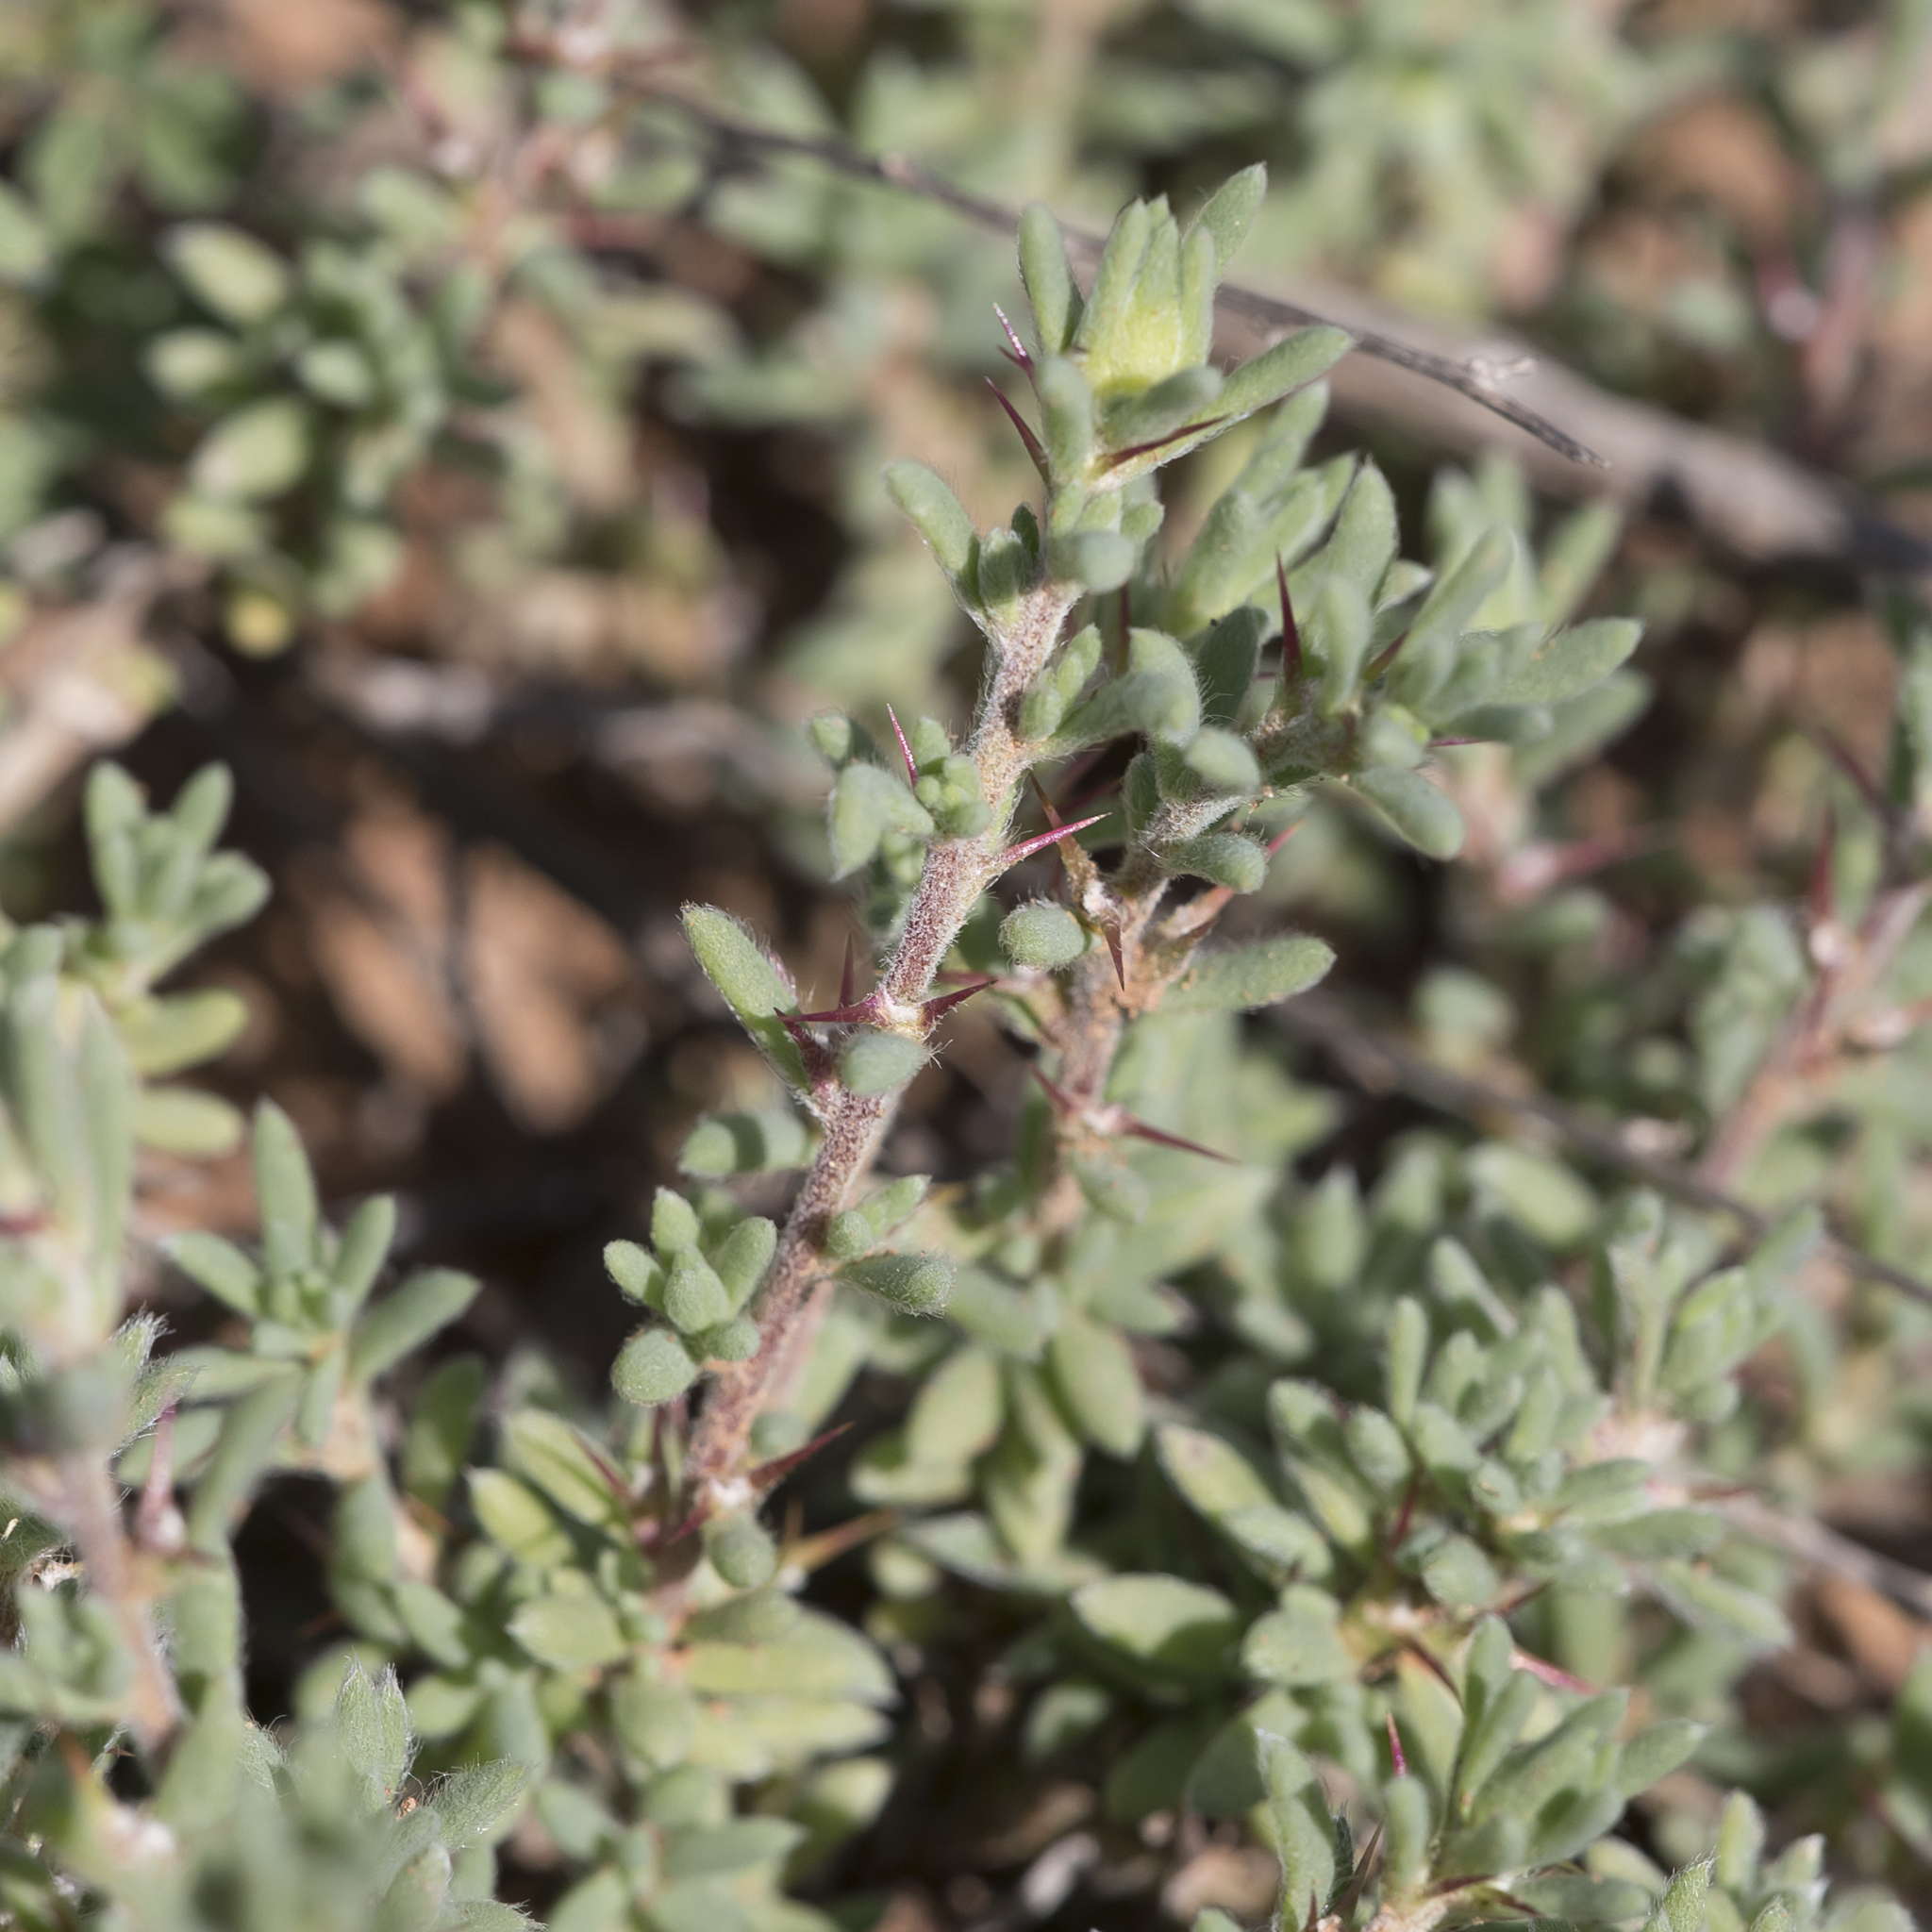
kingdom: Plantae
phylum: Tracheophyta
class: Magnoliopsida
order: Caryophyllales
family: Amaranthaceae
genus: Sclerolaena
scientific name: Sclerolaena obliquicuspis
